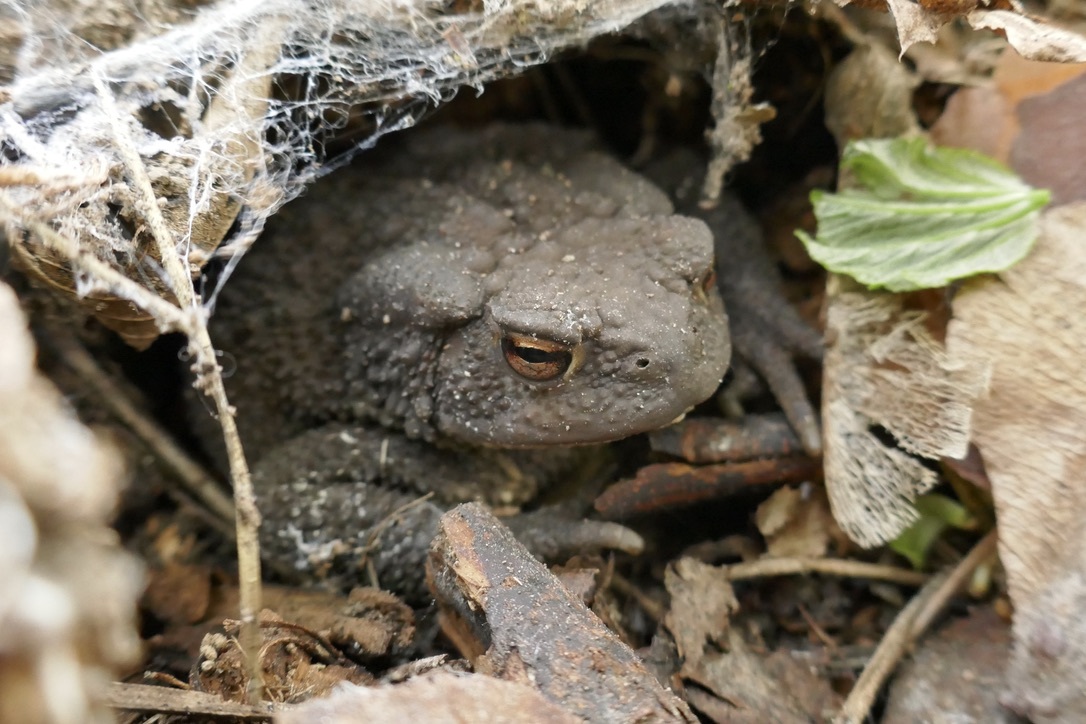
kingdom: Animalia
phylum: Chordata
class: Amphibia
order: Anura
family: Bufonidae
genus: Bufo
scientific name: Bufo bufo
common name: Common toad
